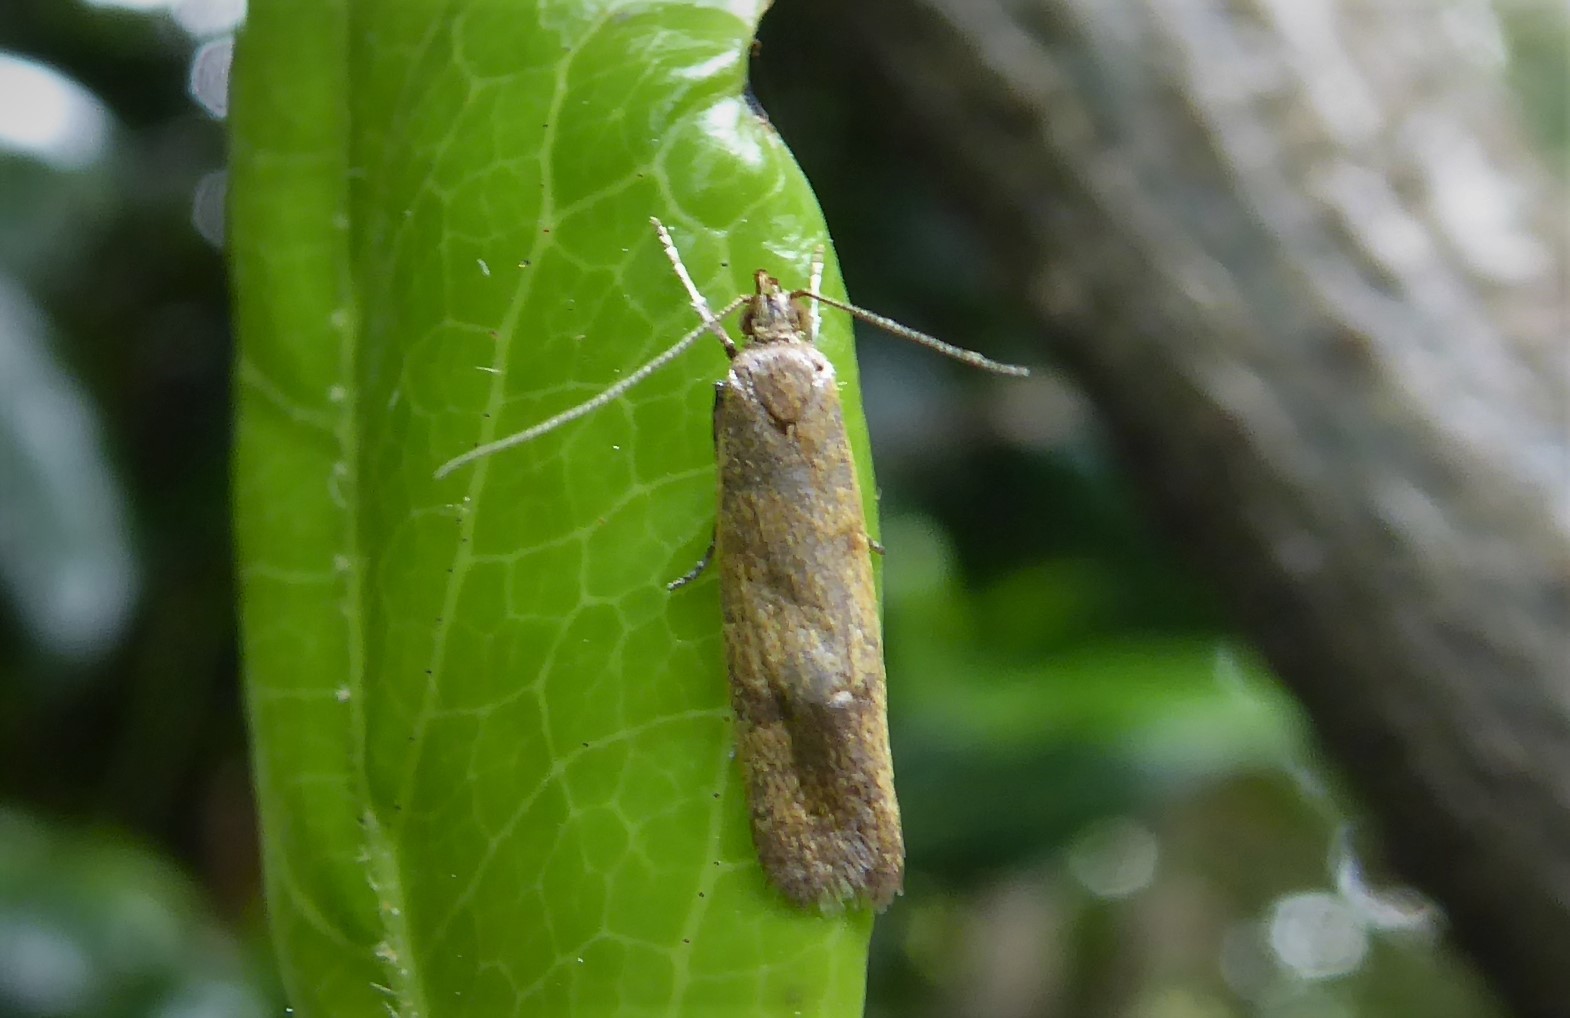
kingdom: Animalia
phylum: Arthropoda
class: Insecta
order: Lepidoptera
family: Oecophoridae
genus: Gymnobathra
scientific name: Gymnobathra parca
